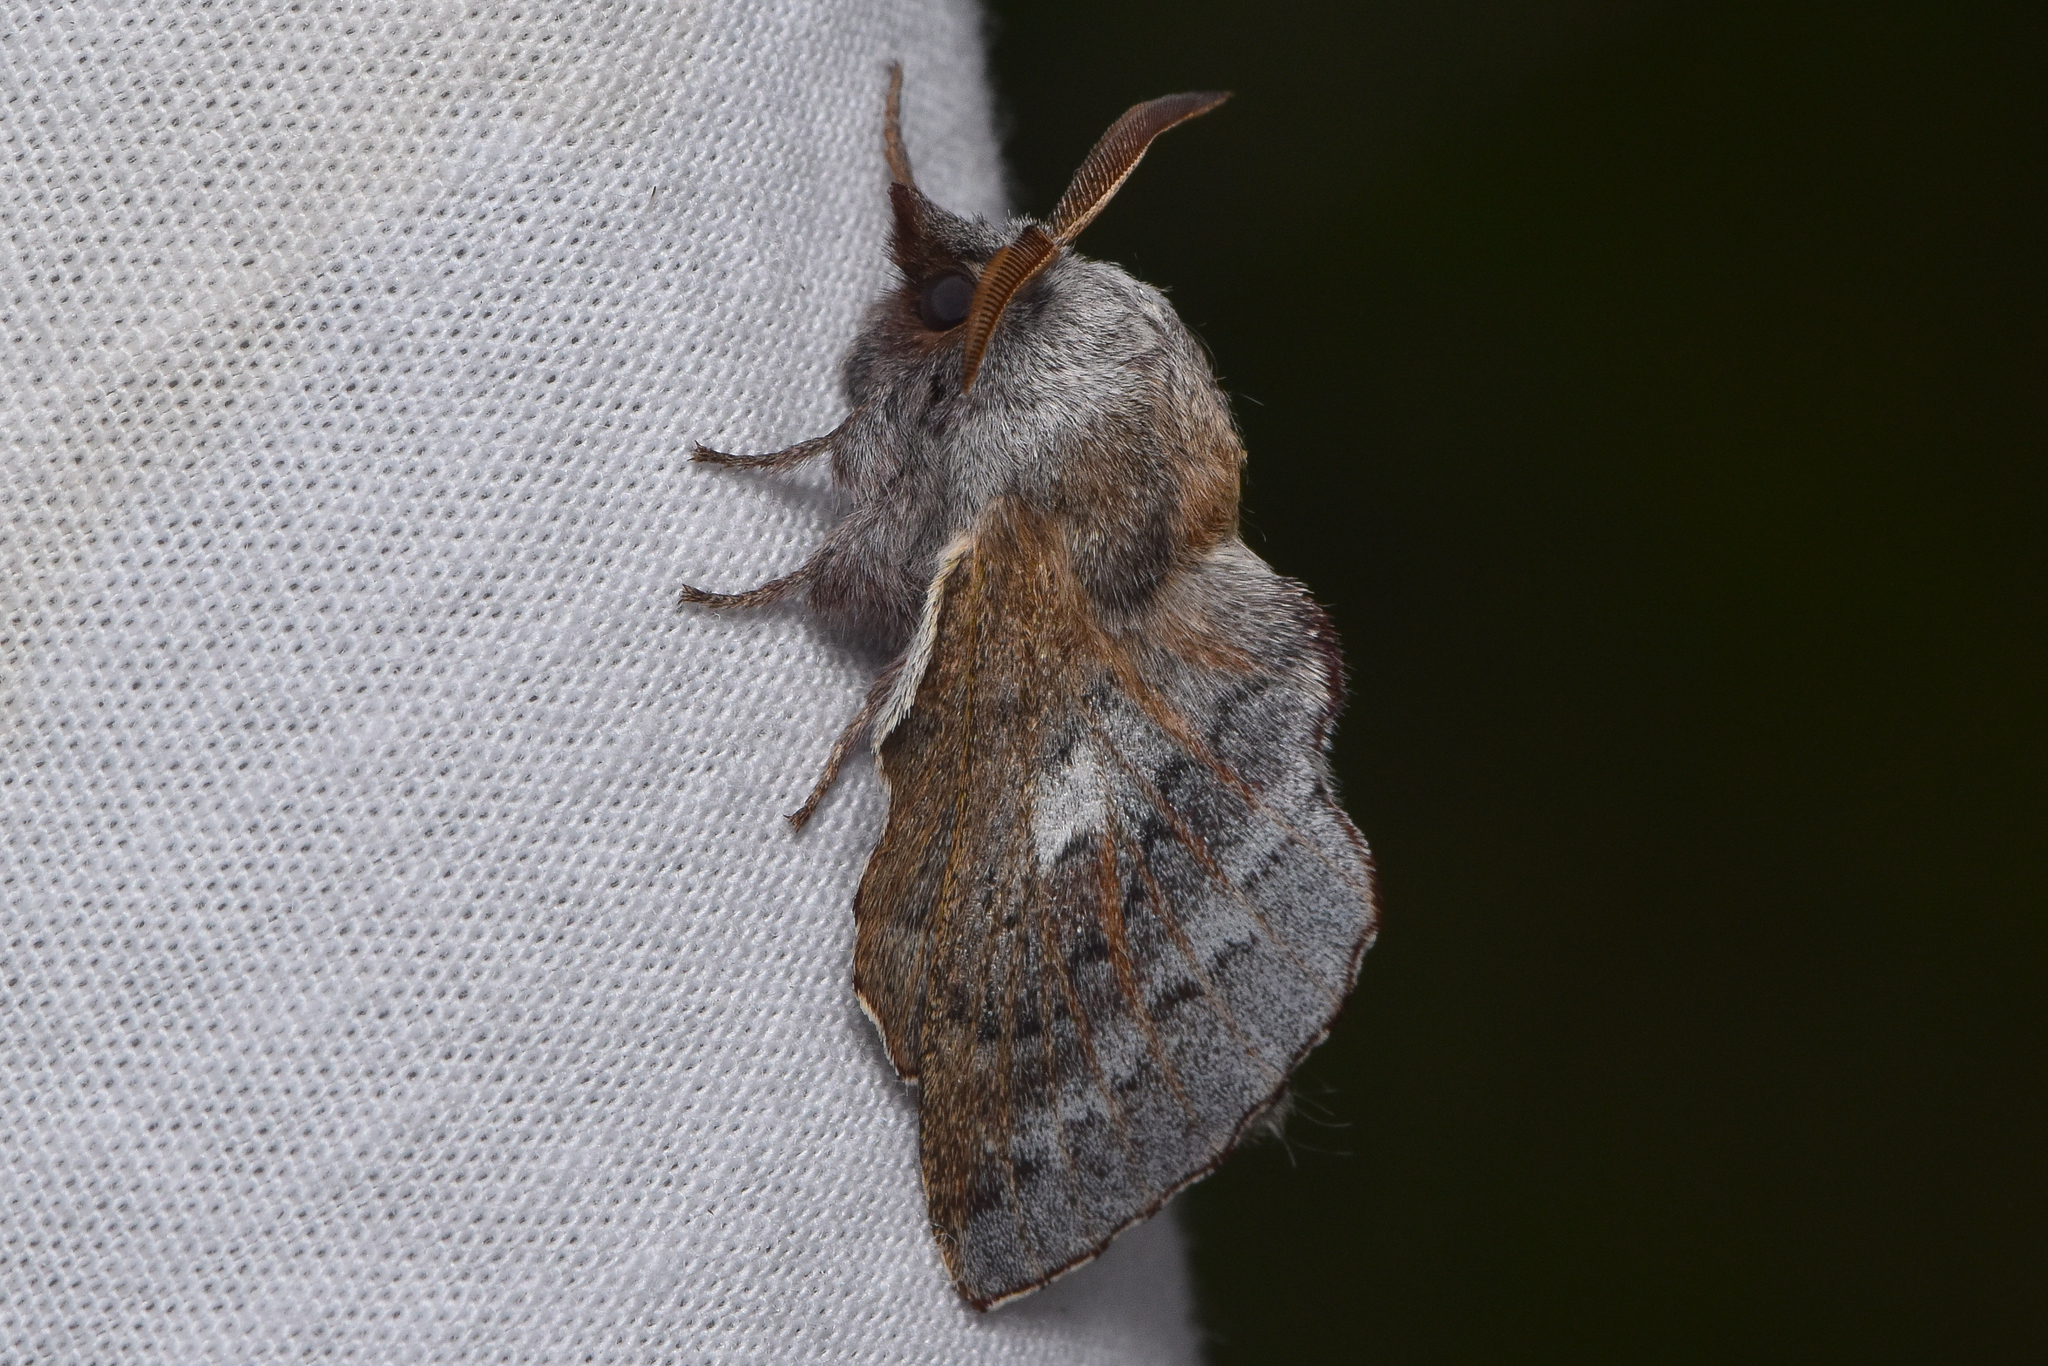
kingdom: Animalia
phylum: Arthropoda
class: Insecta
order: Lepidoptera
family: Lasiocampidae
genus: Phyllodesma
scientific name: Phyllodesma americana
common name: American lappet moth
